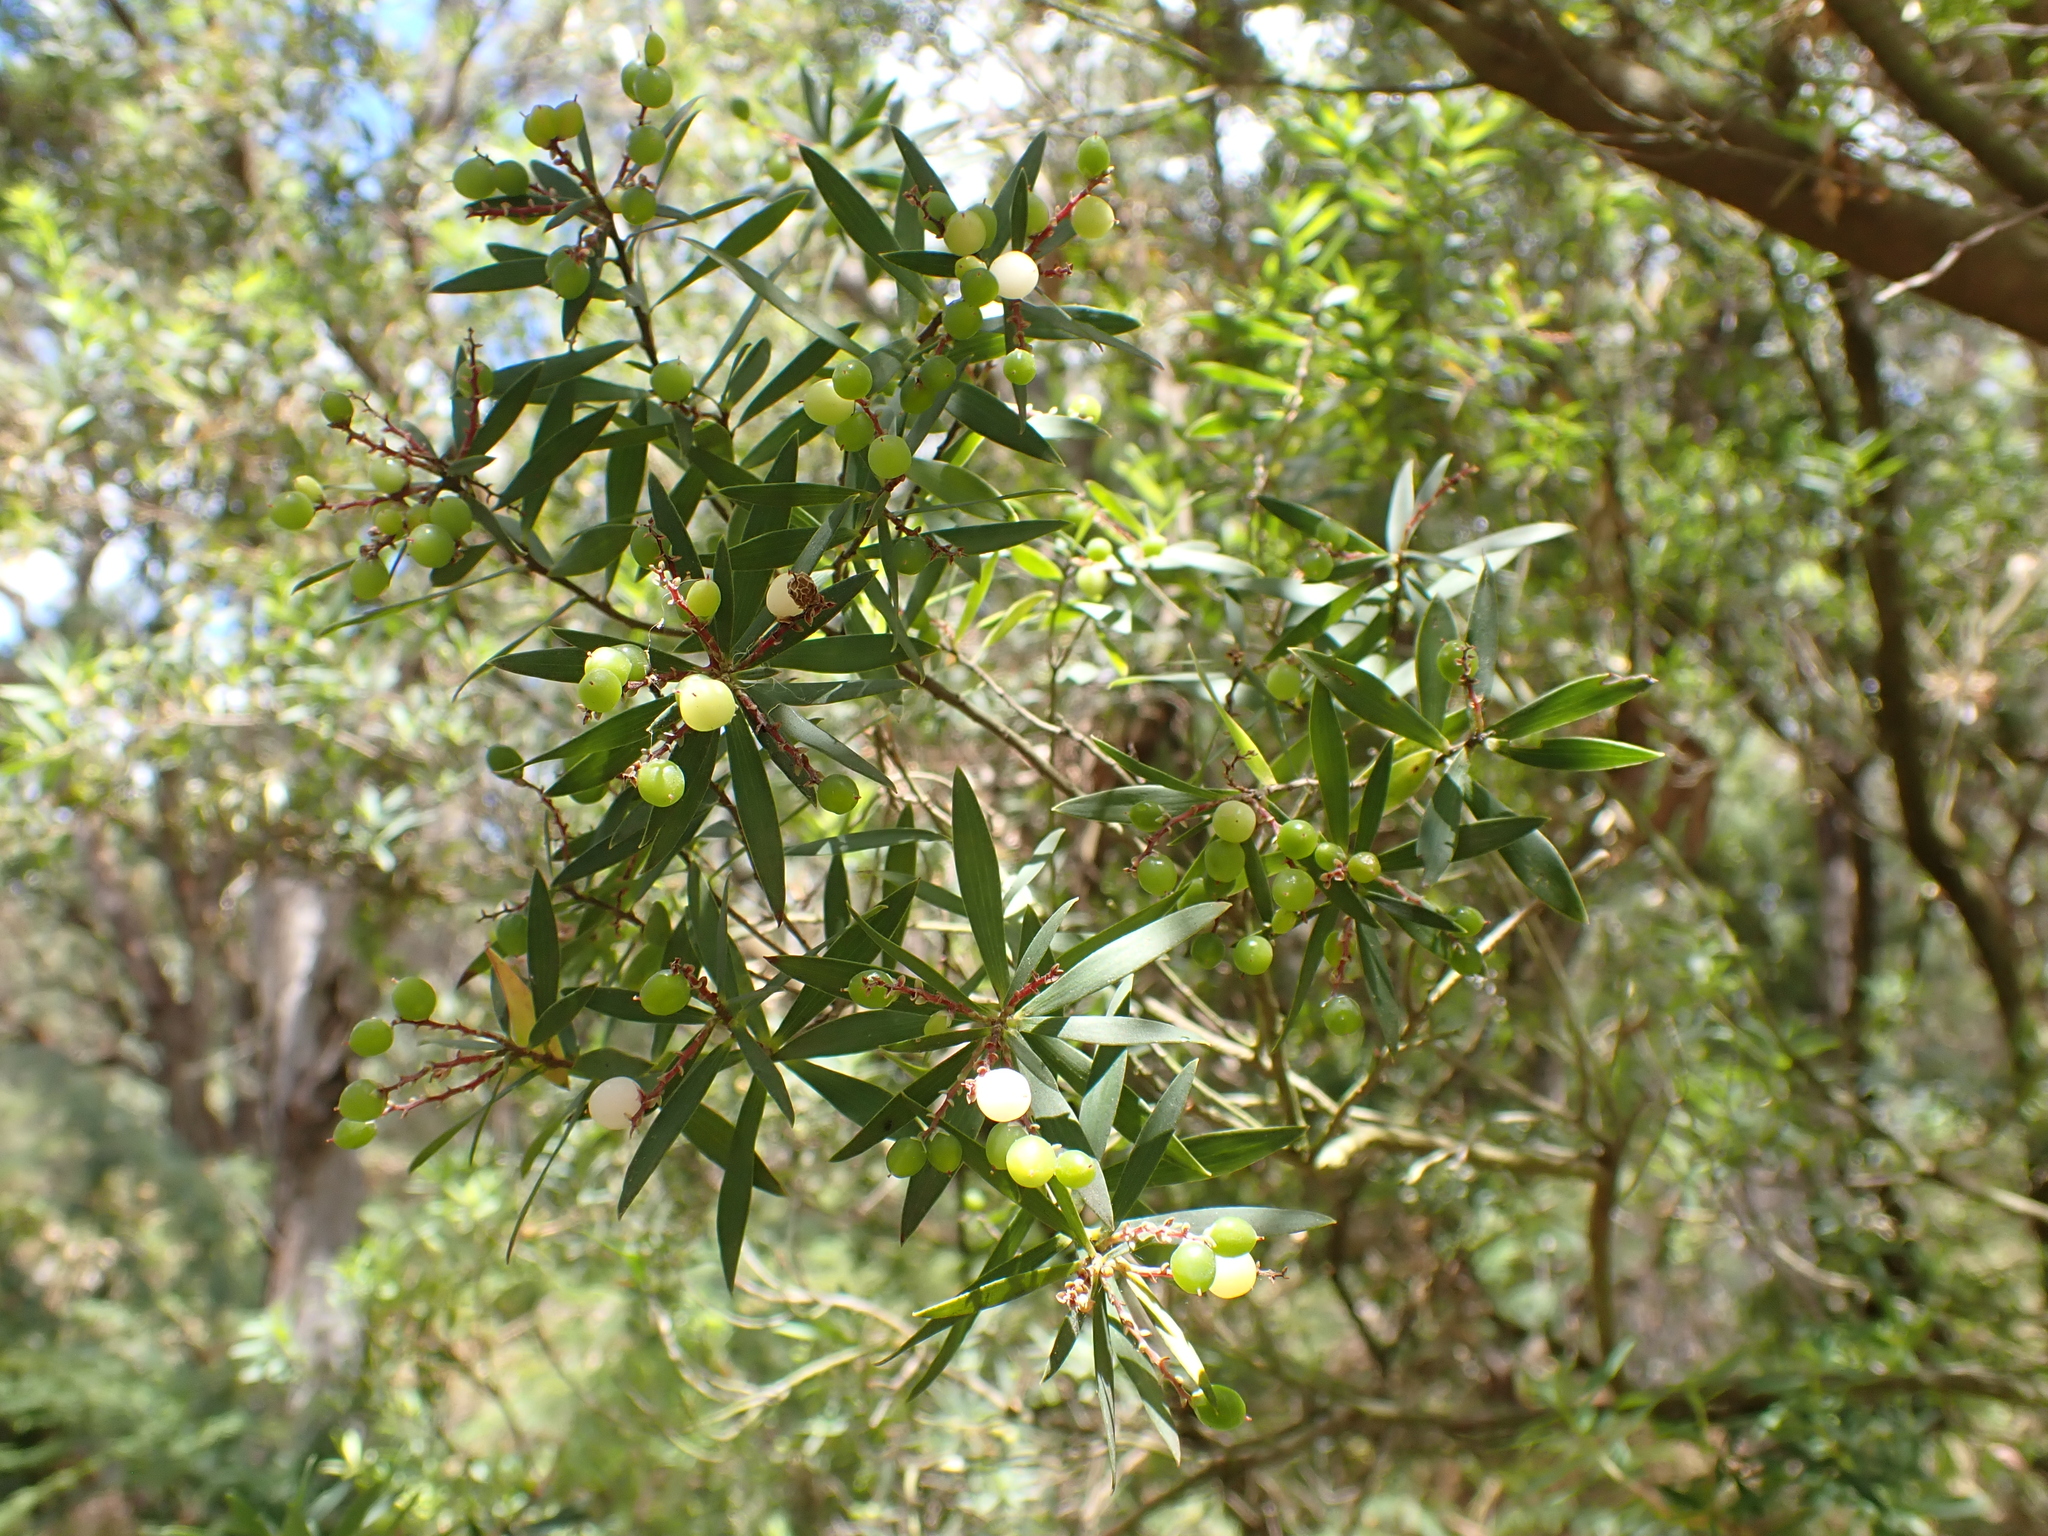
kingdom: Plantae
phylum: Tracheophyta
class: Magnoliopsida
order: Ericales
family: Ericaceae
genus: Leptecophylla
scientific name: Leptecophylla parvifolia
